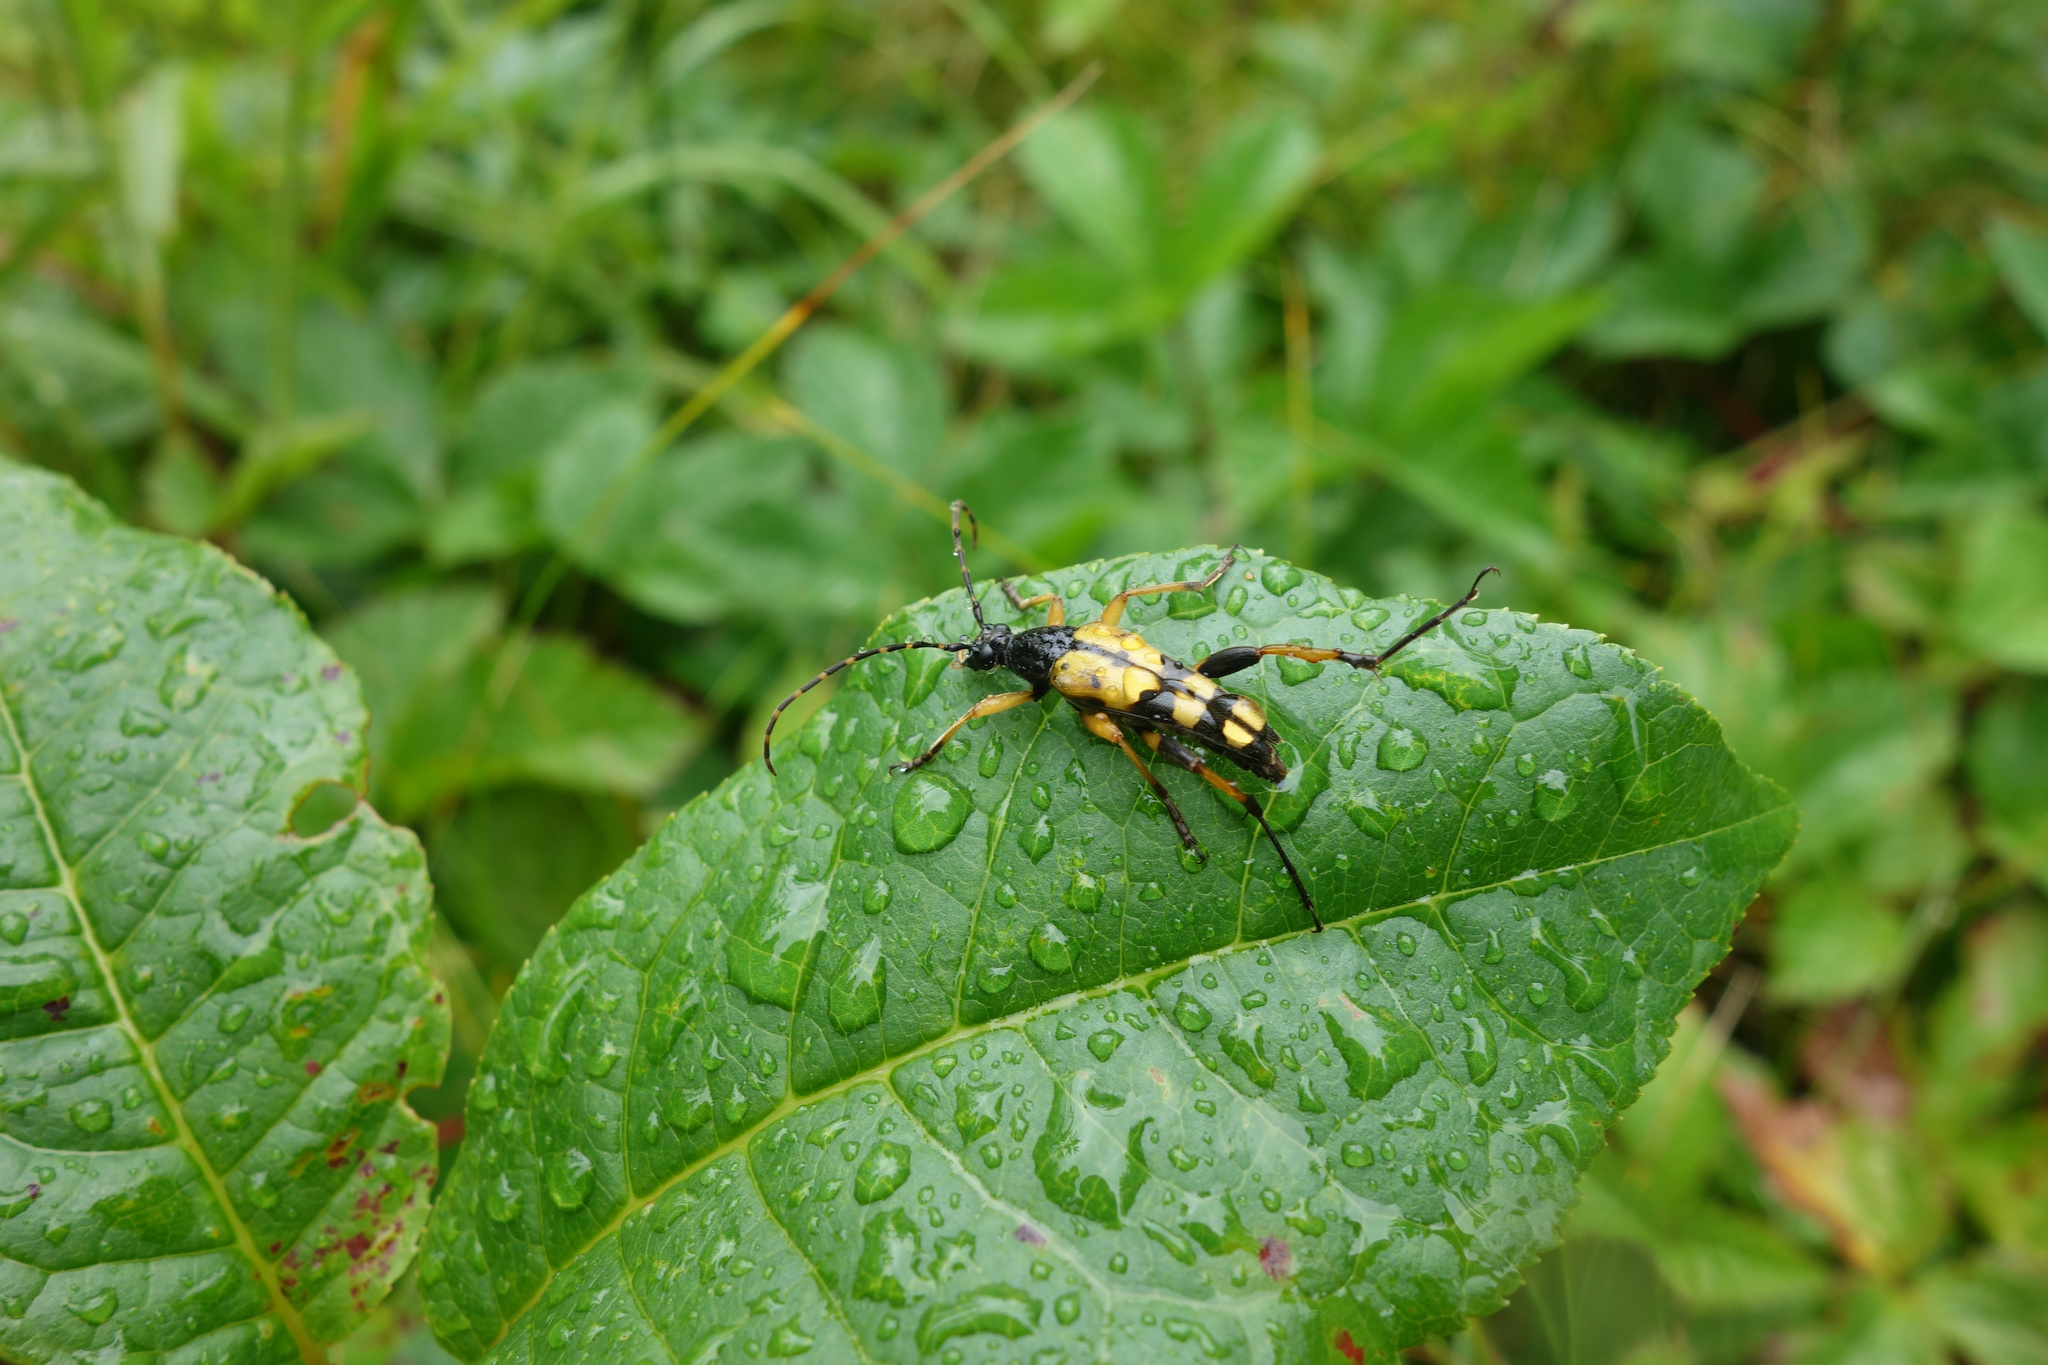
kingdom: Animalia
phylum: Arthropoda
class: Insecta
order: Coleoptera
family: Cerambycidae
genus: Rutpela
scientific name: Rutpela maculata
